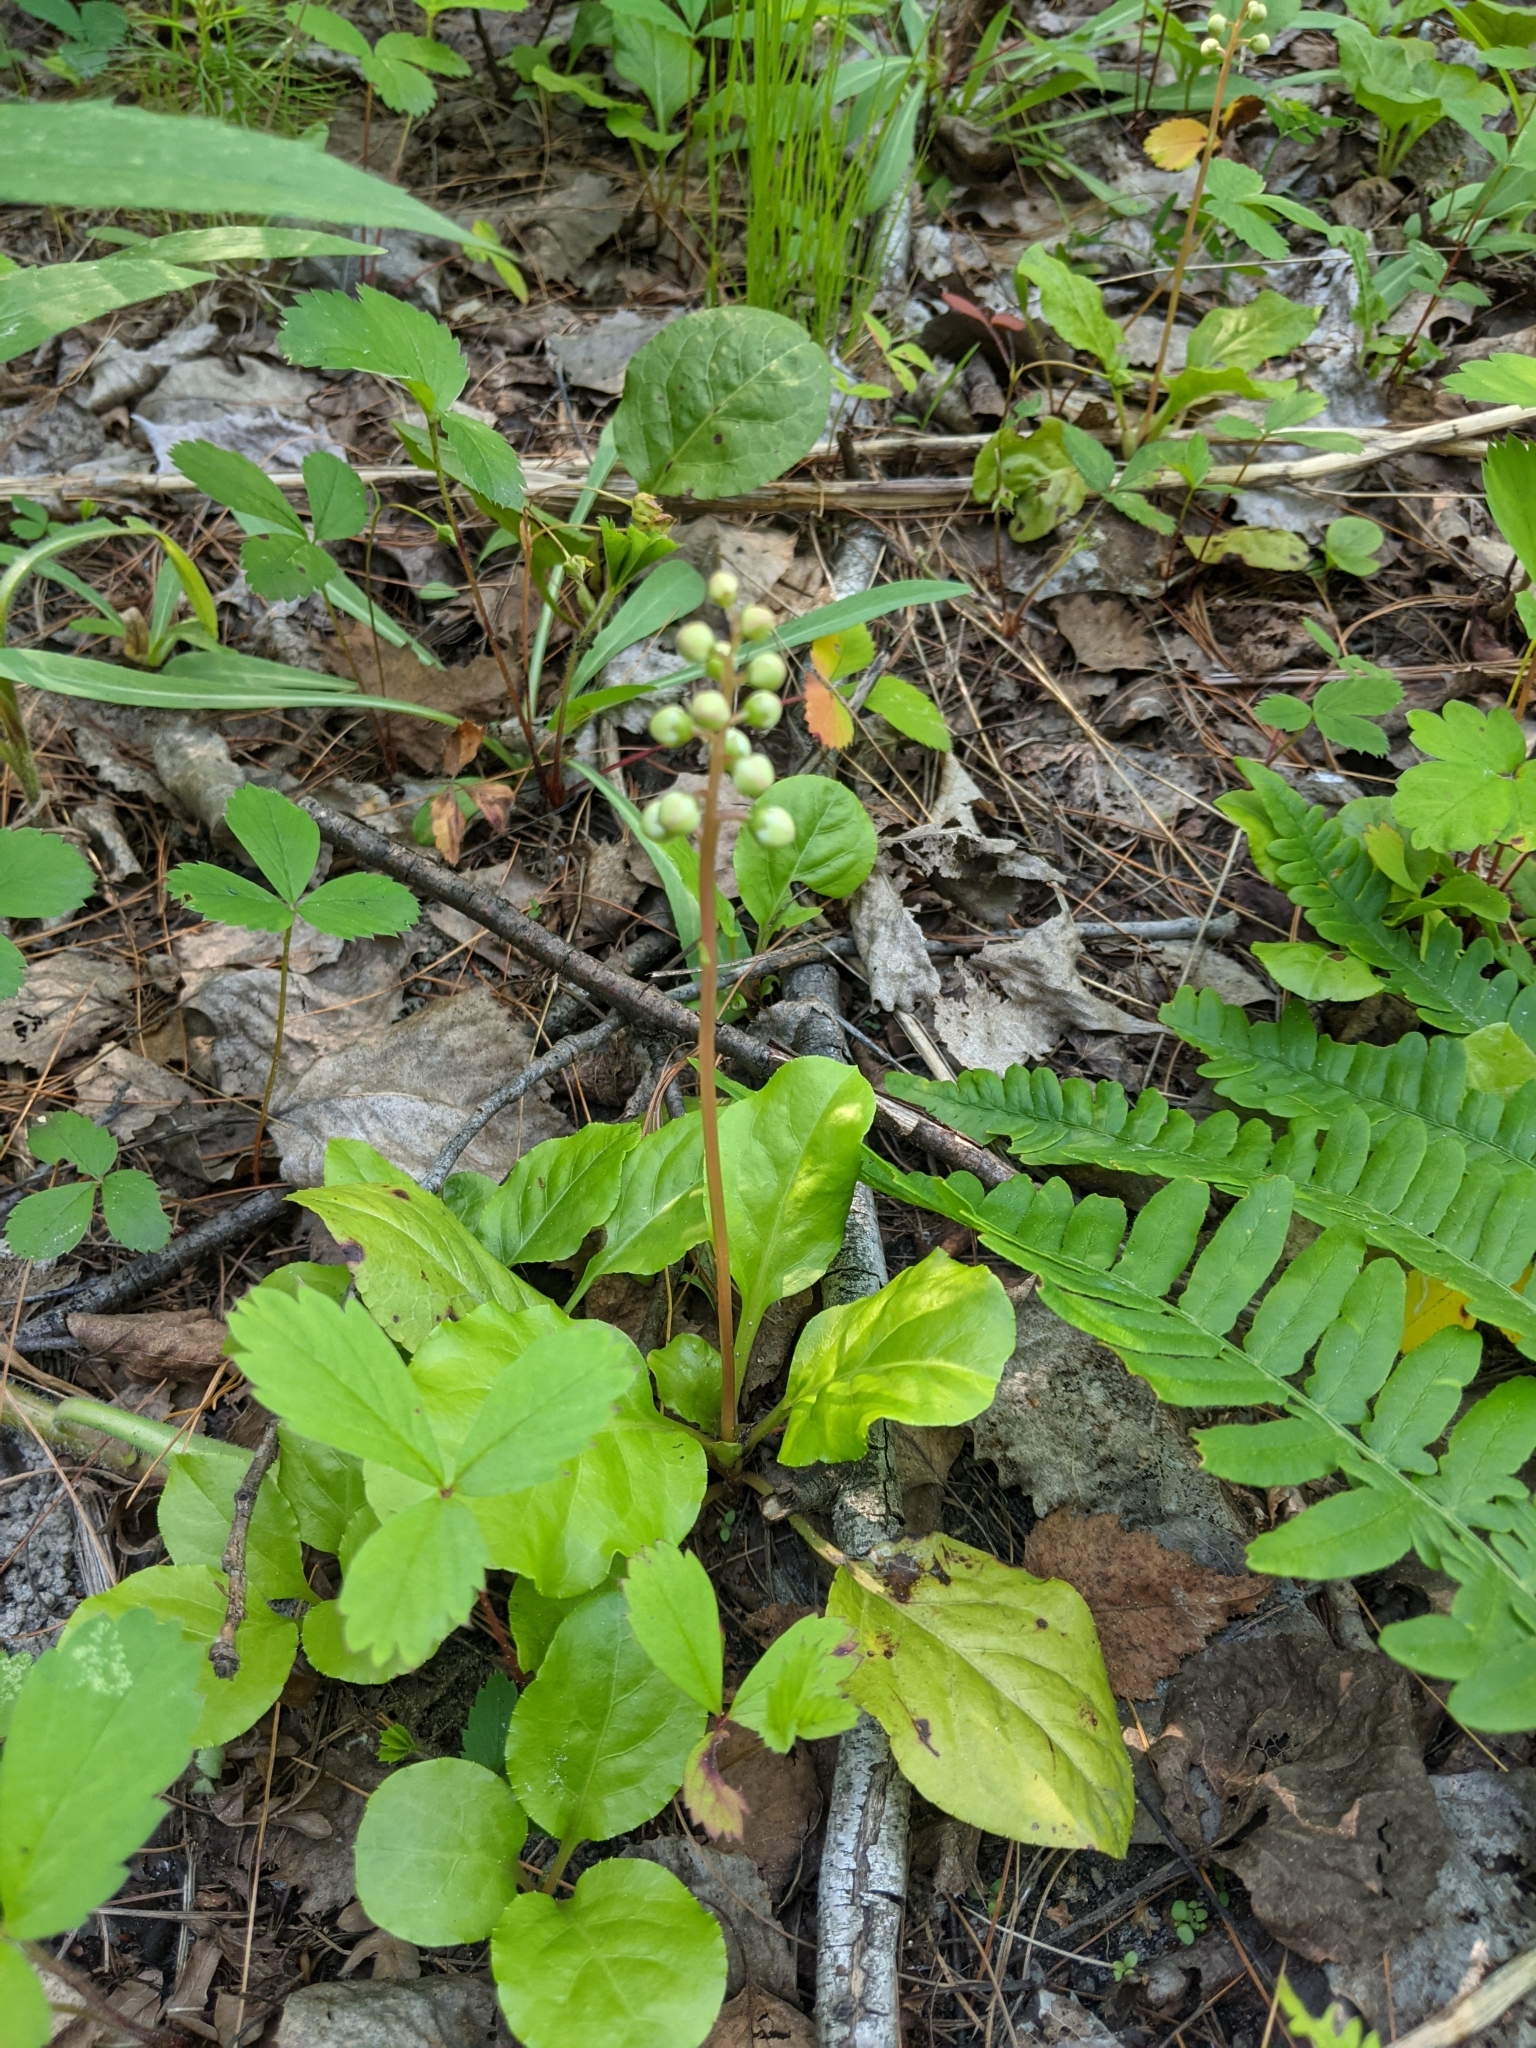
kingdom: Plantae
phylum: Tracheophyta
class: Magnoliopsida
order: Ericales
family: Ericaceae
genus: Pyrola
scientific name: Pyrola elliptica
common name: Shinleaf
